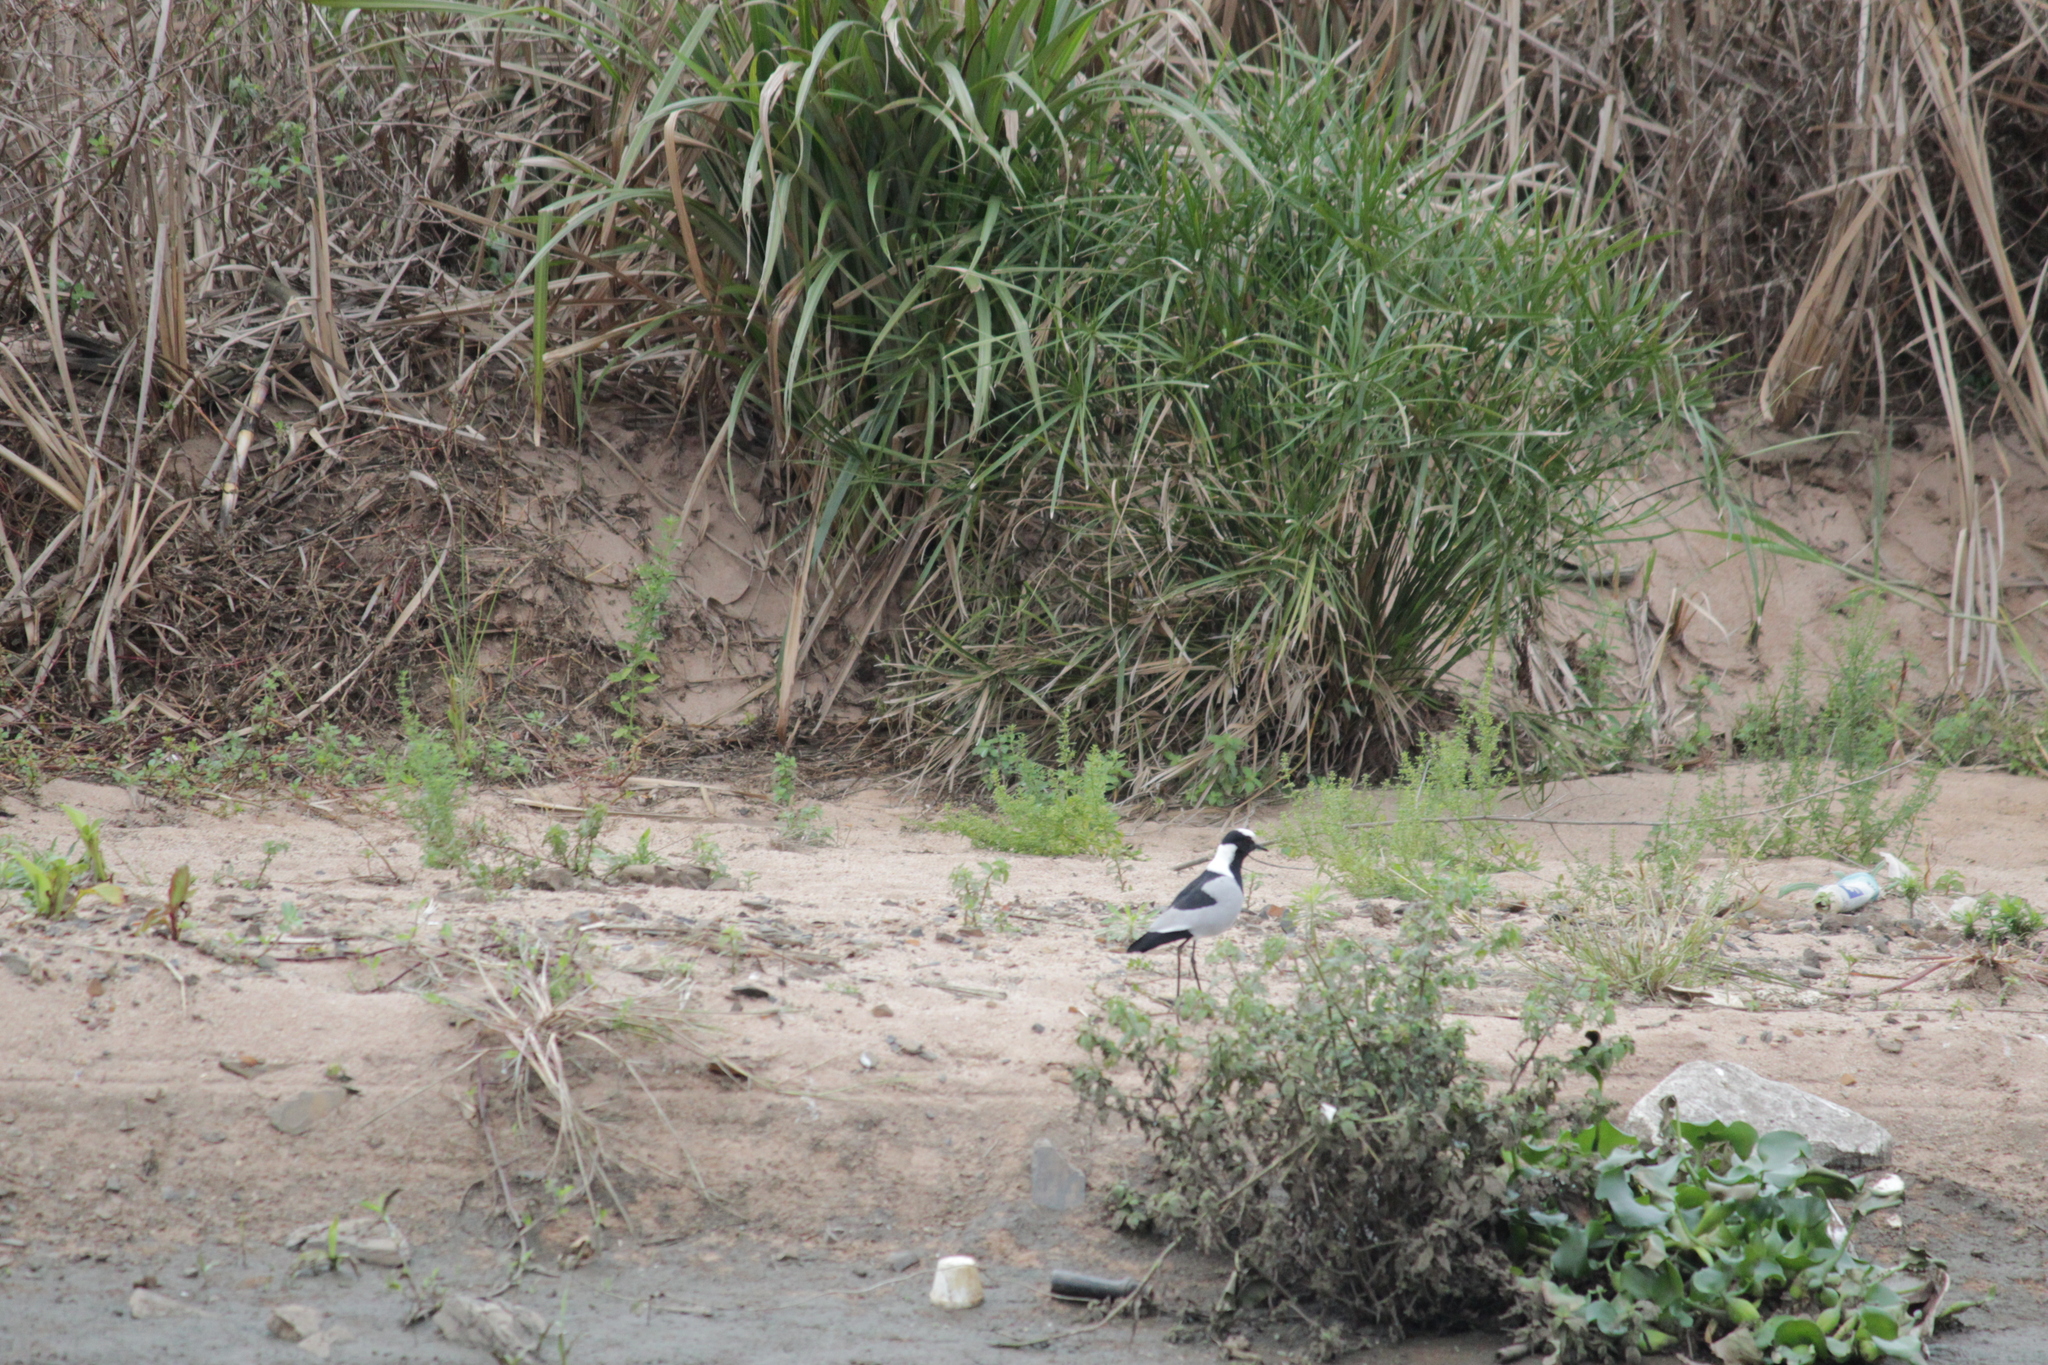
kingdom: Animalia
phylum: Chordata
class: Aves
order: Charadriiformes
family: Charadriidae
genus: Vanellus
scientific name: Vanellus armatus
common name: Blacksmith lapwing
